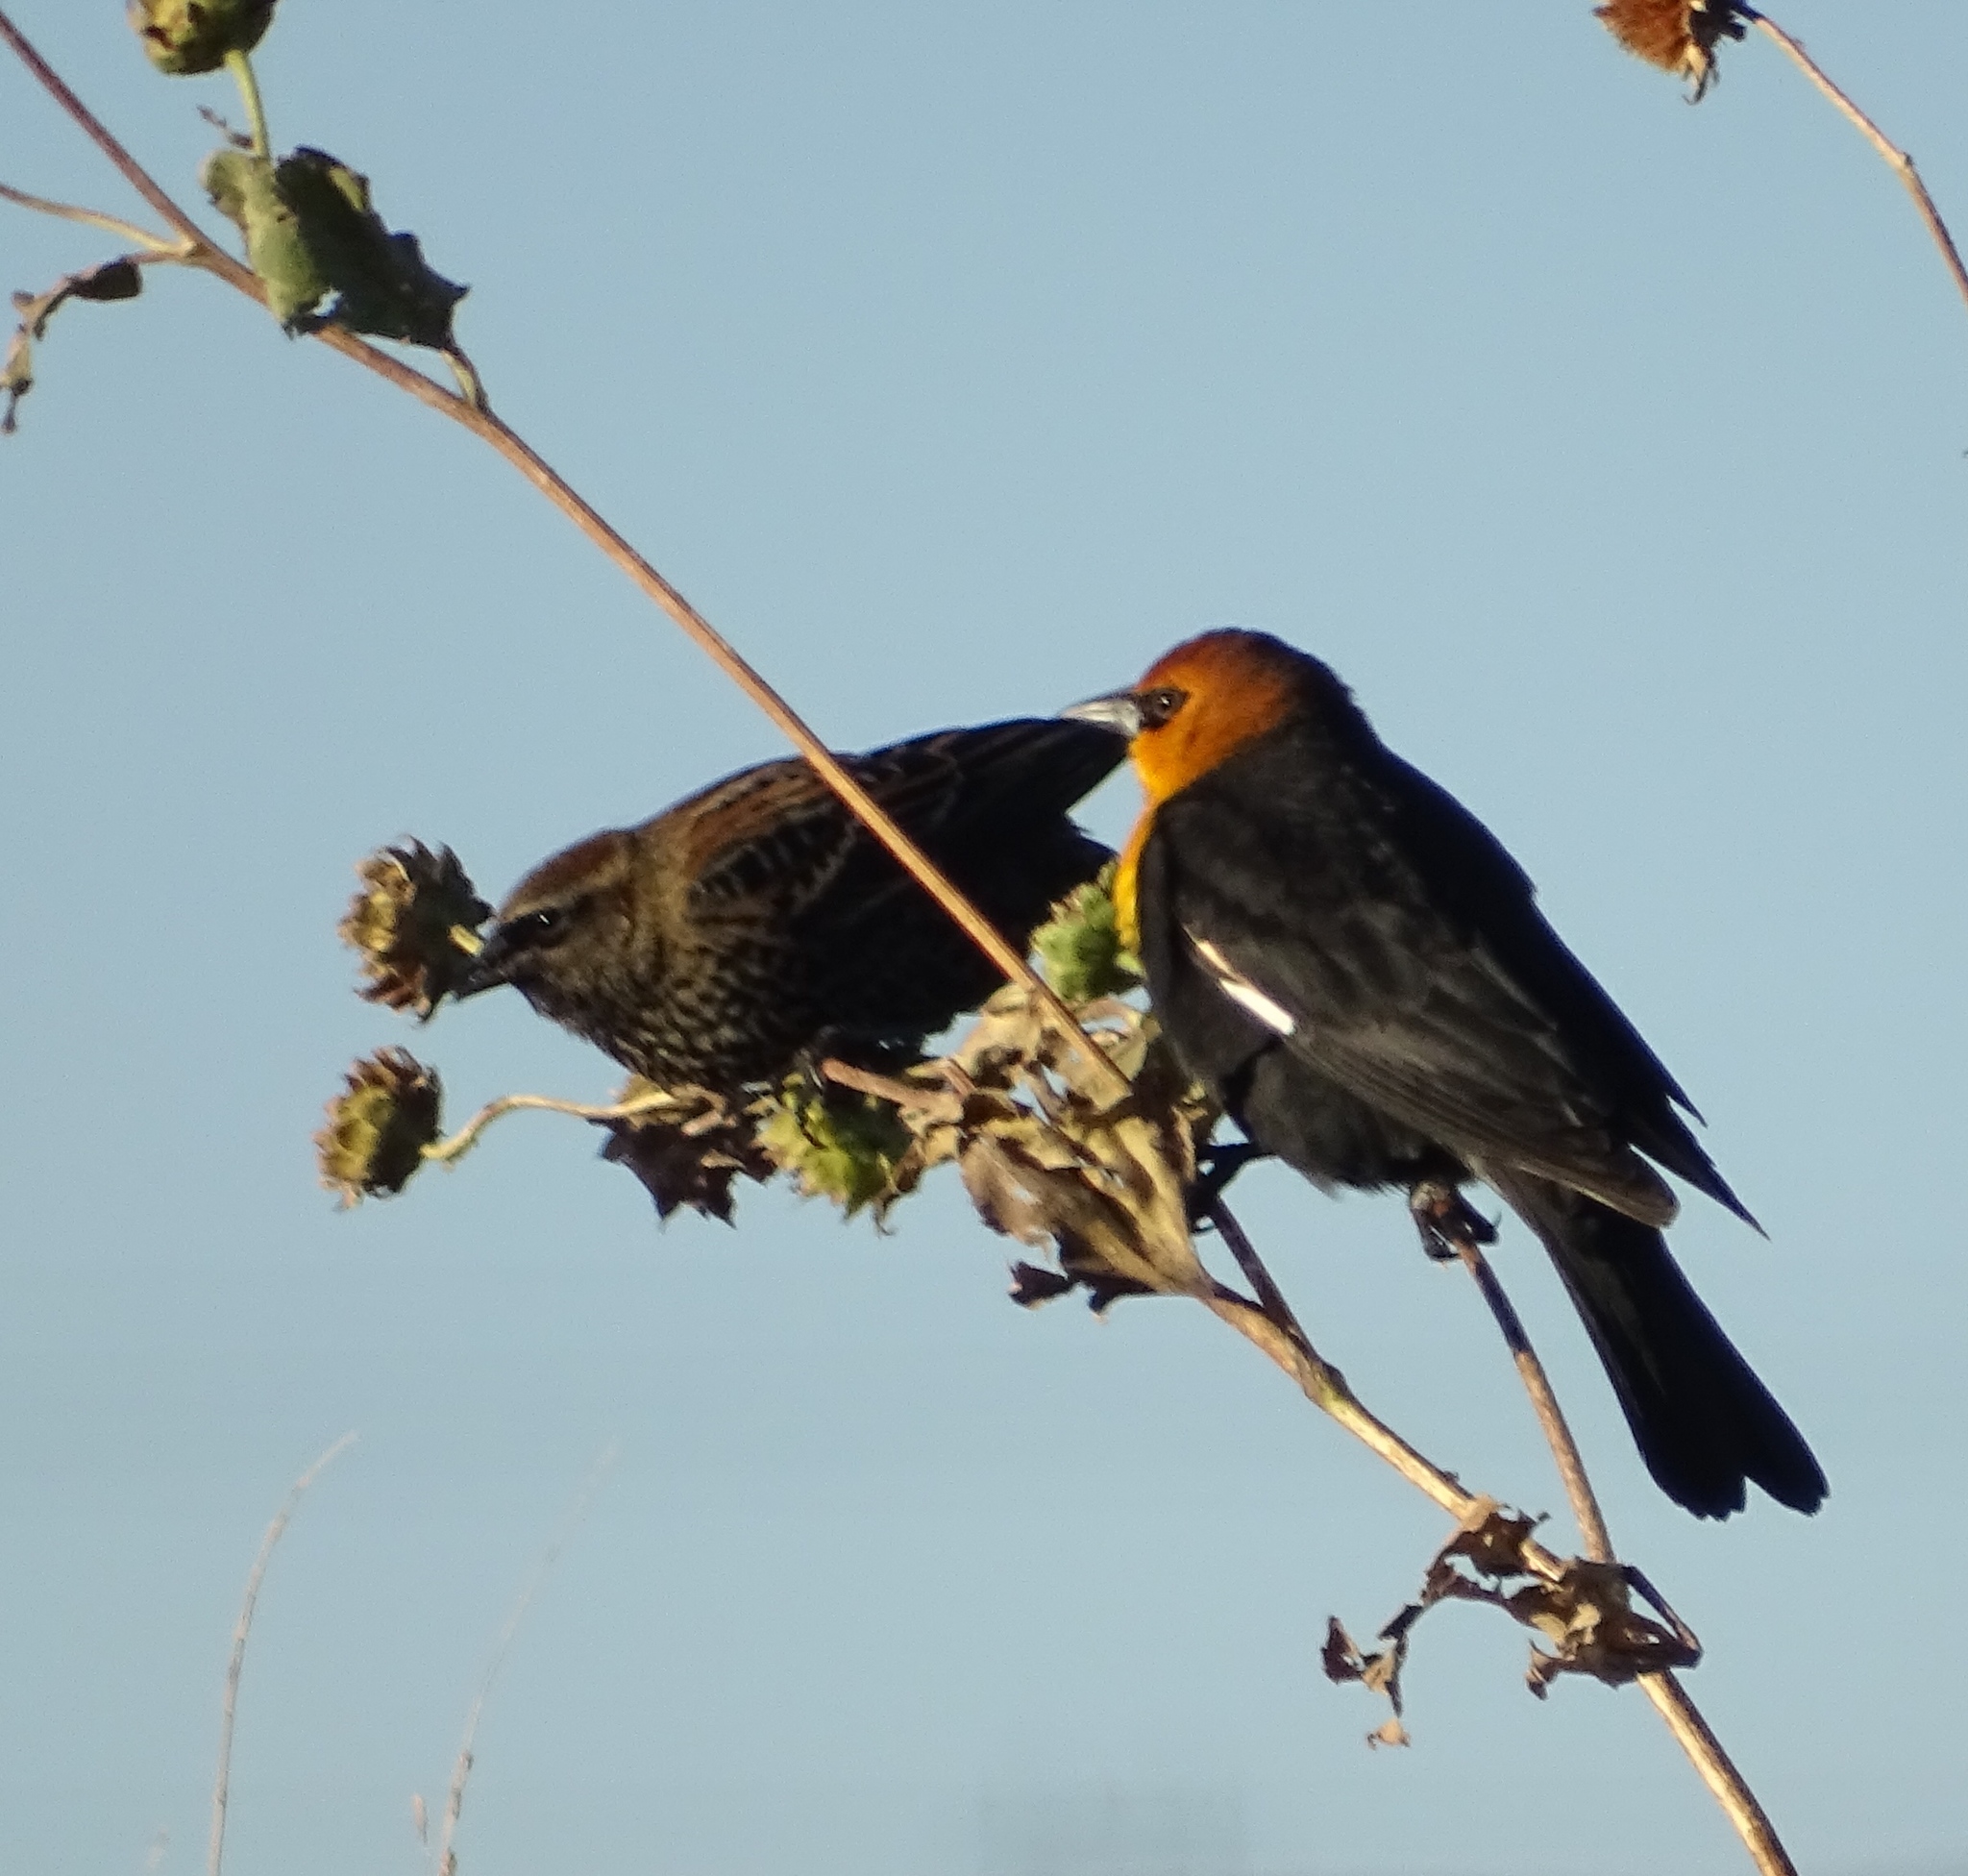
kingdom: Animalia
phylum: Chordata
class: Aves
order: Passeriformes
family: Icteridae
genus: Xanthocephalus
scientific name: Xanthocephalus xanthocephalus
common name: Yellow-headed blackbird
